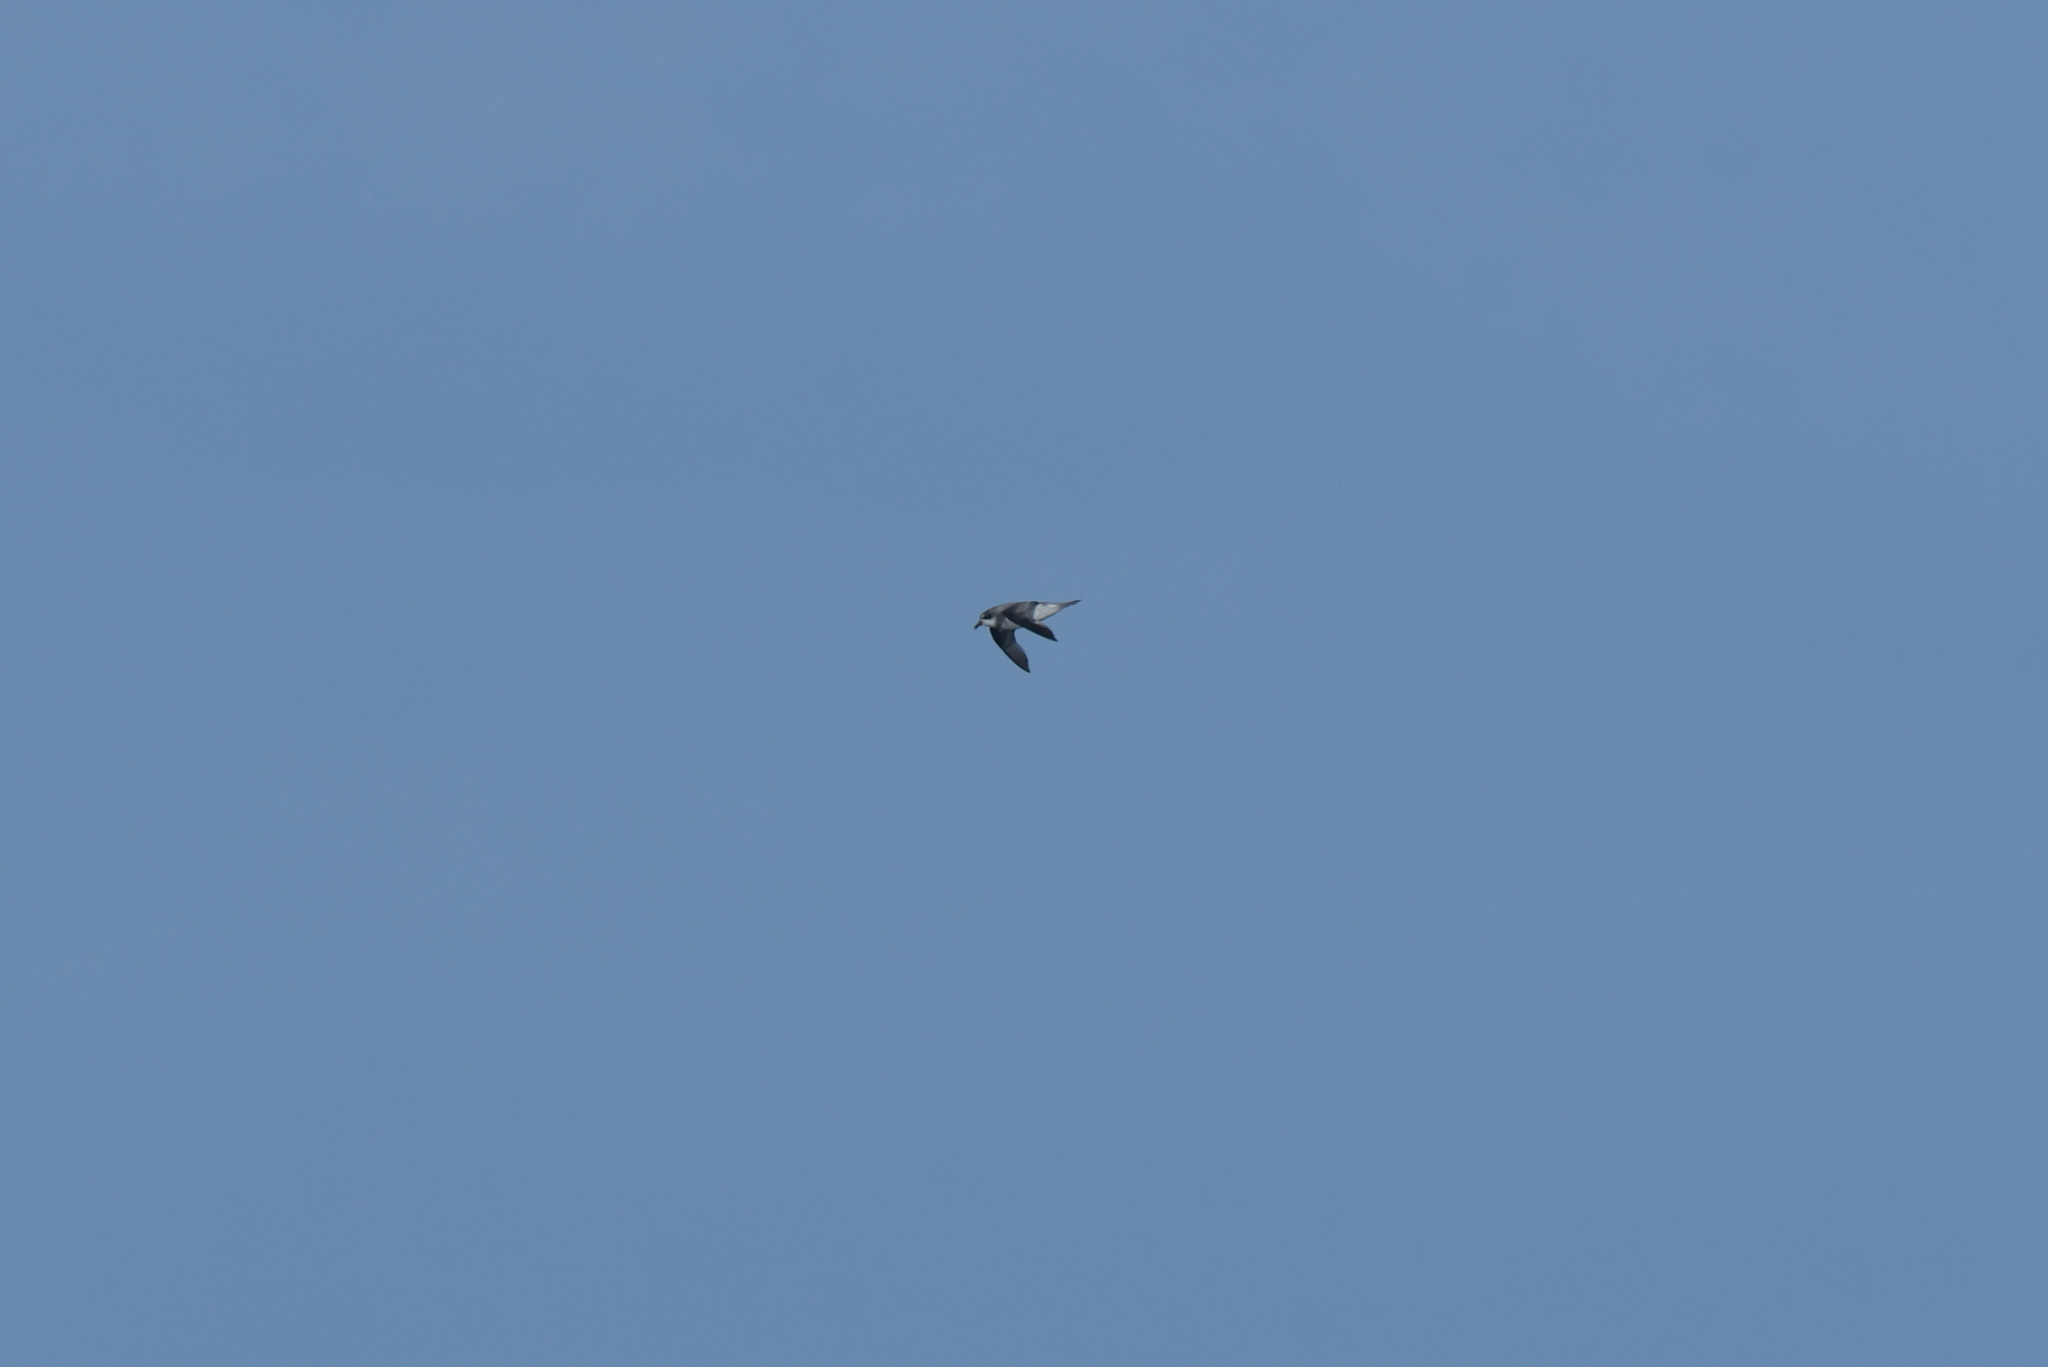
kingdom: Animalia
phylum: Chordata
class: Aves
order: Procellariiformes
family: Procellariidae
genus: Pterodroma
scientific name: Pterodroma mollis
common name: Soft-plumaged petrel
